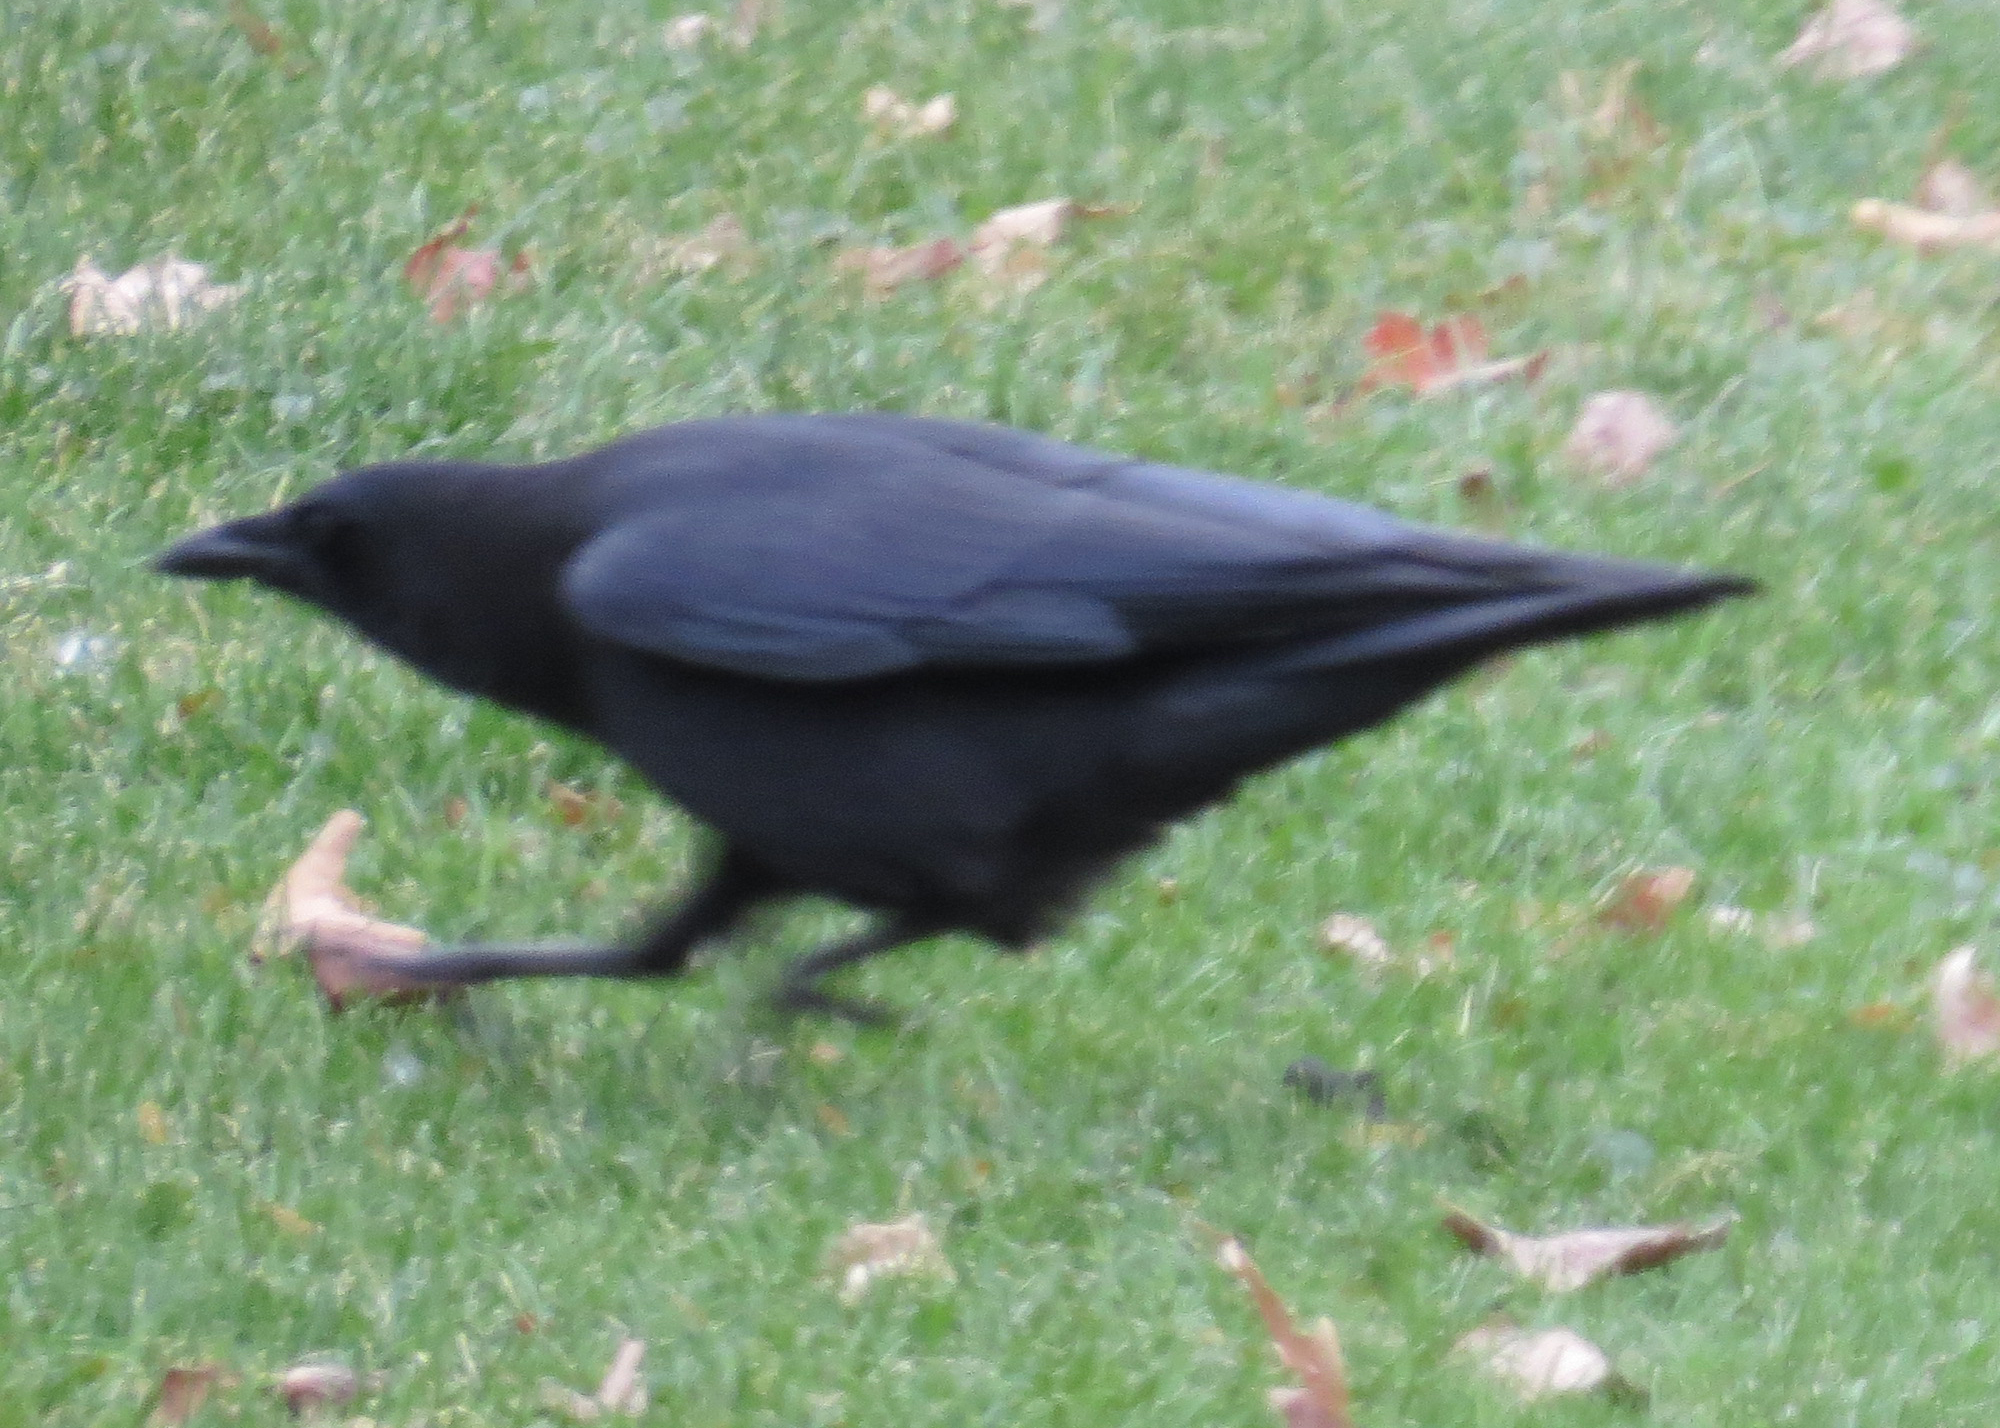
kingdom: Animalia
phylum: Chordata
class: Aves
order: Passeriformes
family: Corvidae
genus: Corvus
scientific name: Corvus brachyrhynchos
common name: American crow
